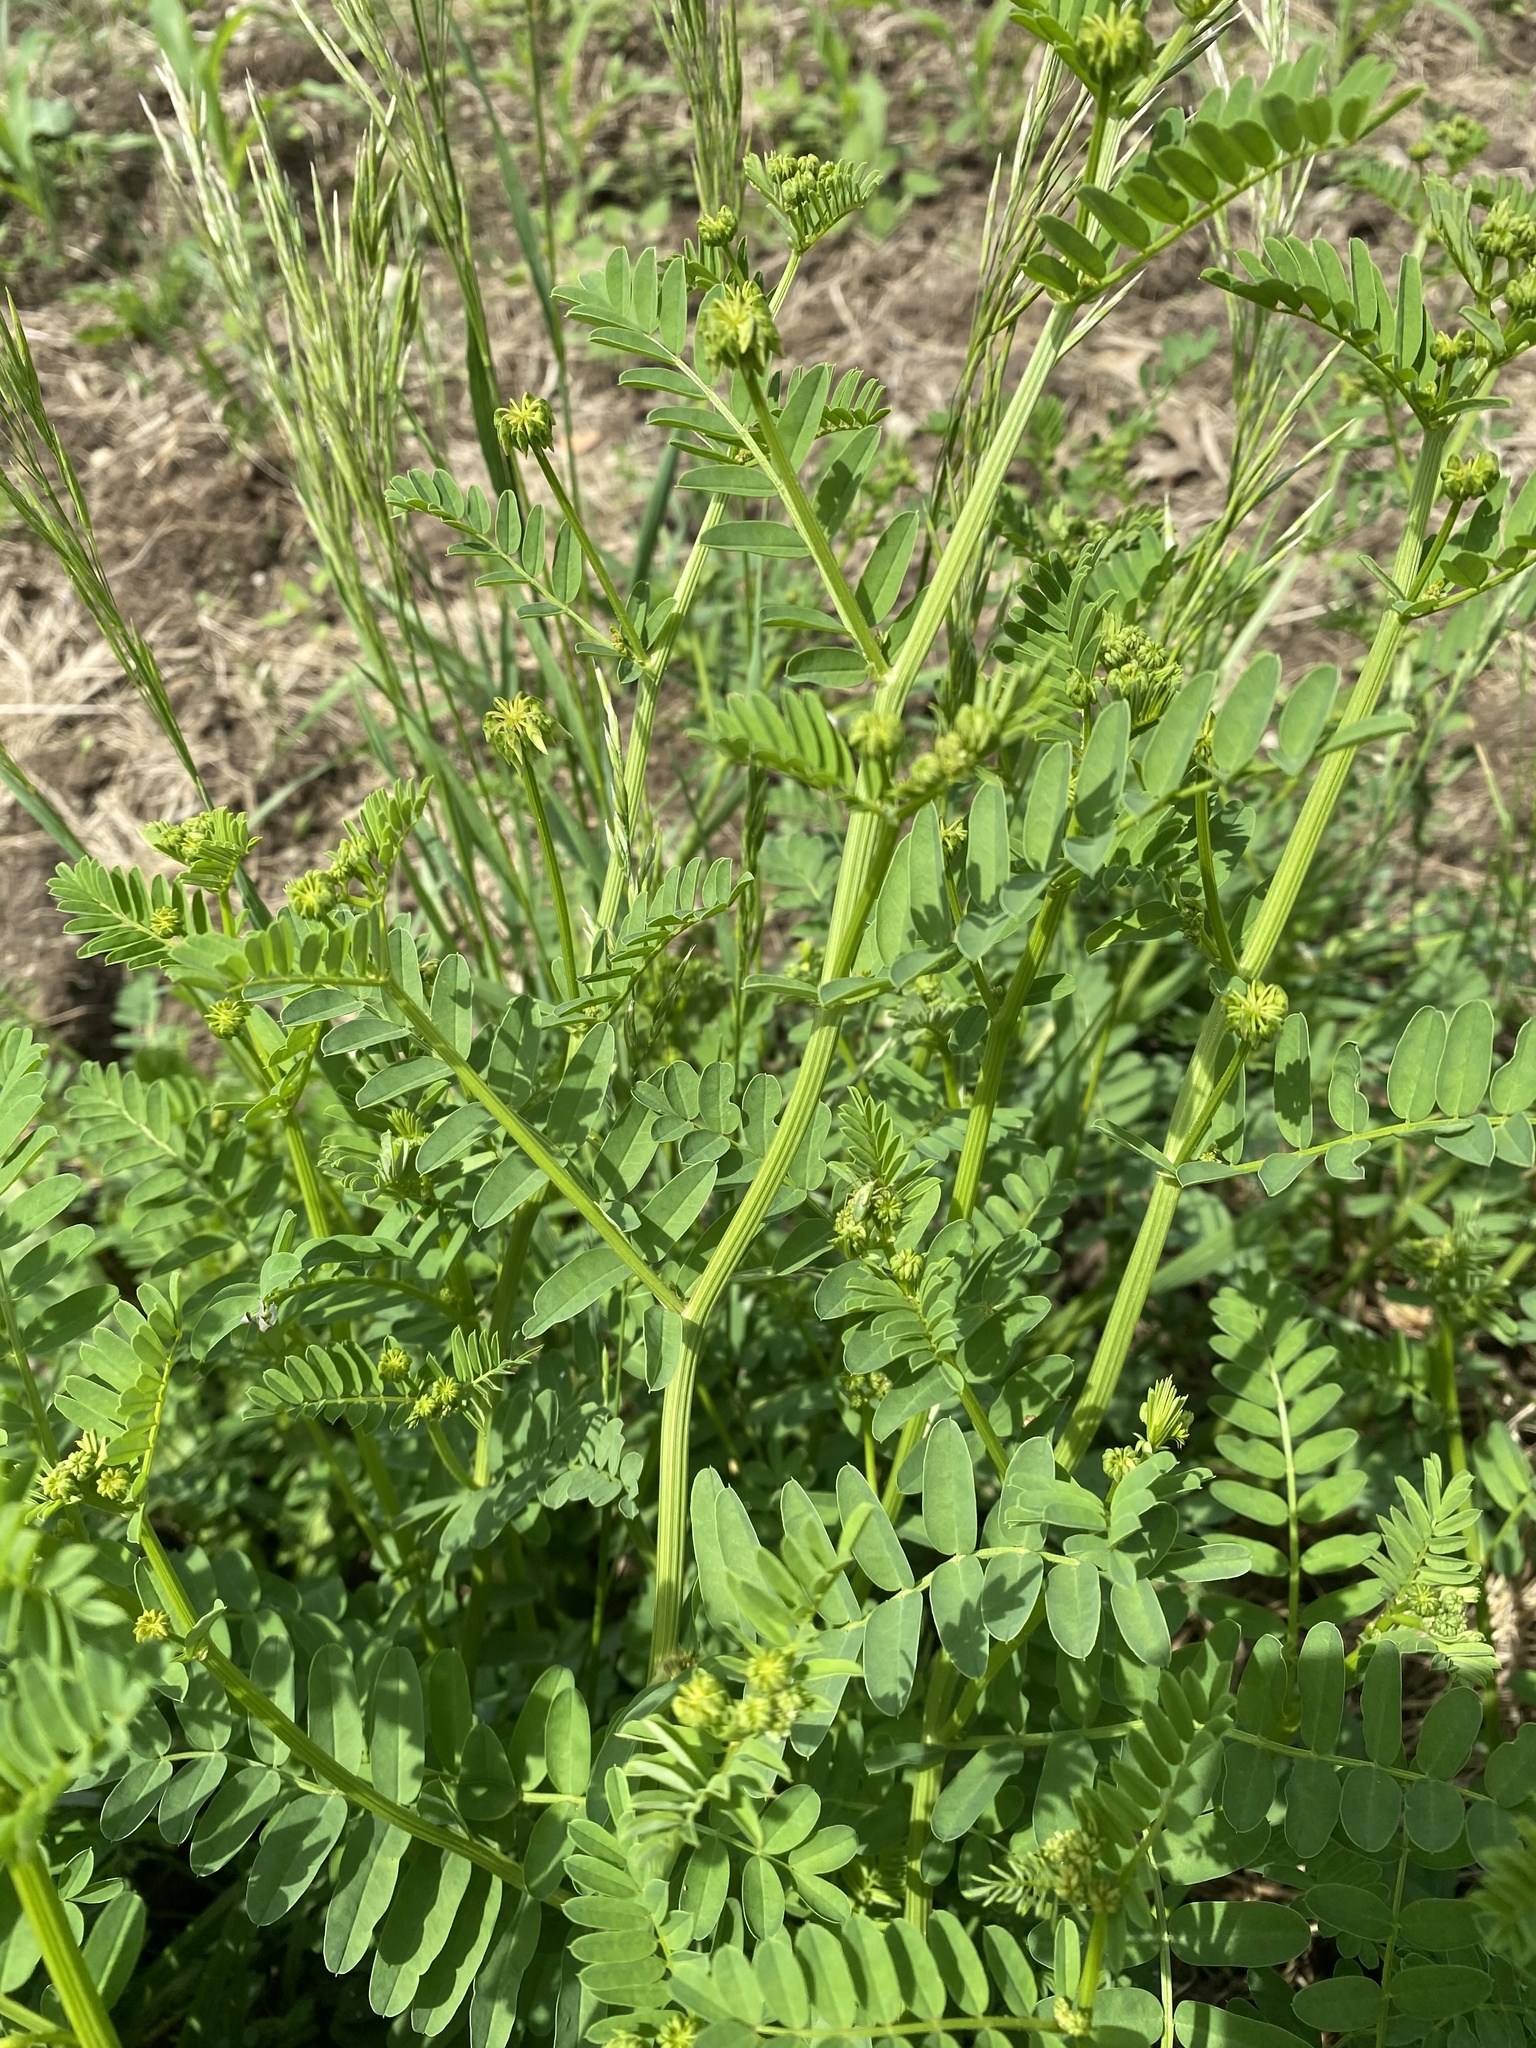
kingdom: Plantae
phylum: Tracheophyta
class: Magnoliopsida
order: Fabales
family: Fabaceae
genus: Coronilla
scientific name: Coronilla varia
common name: Crownvetch
